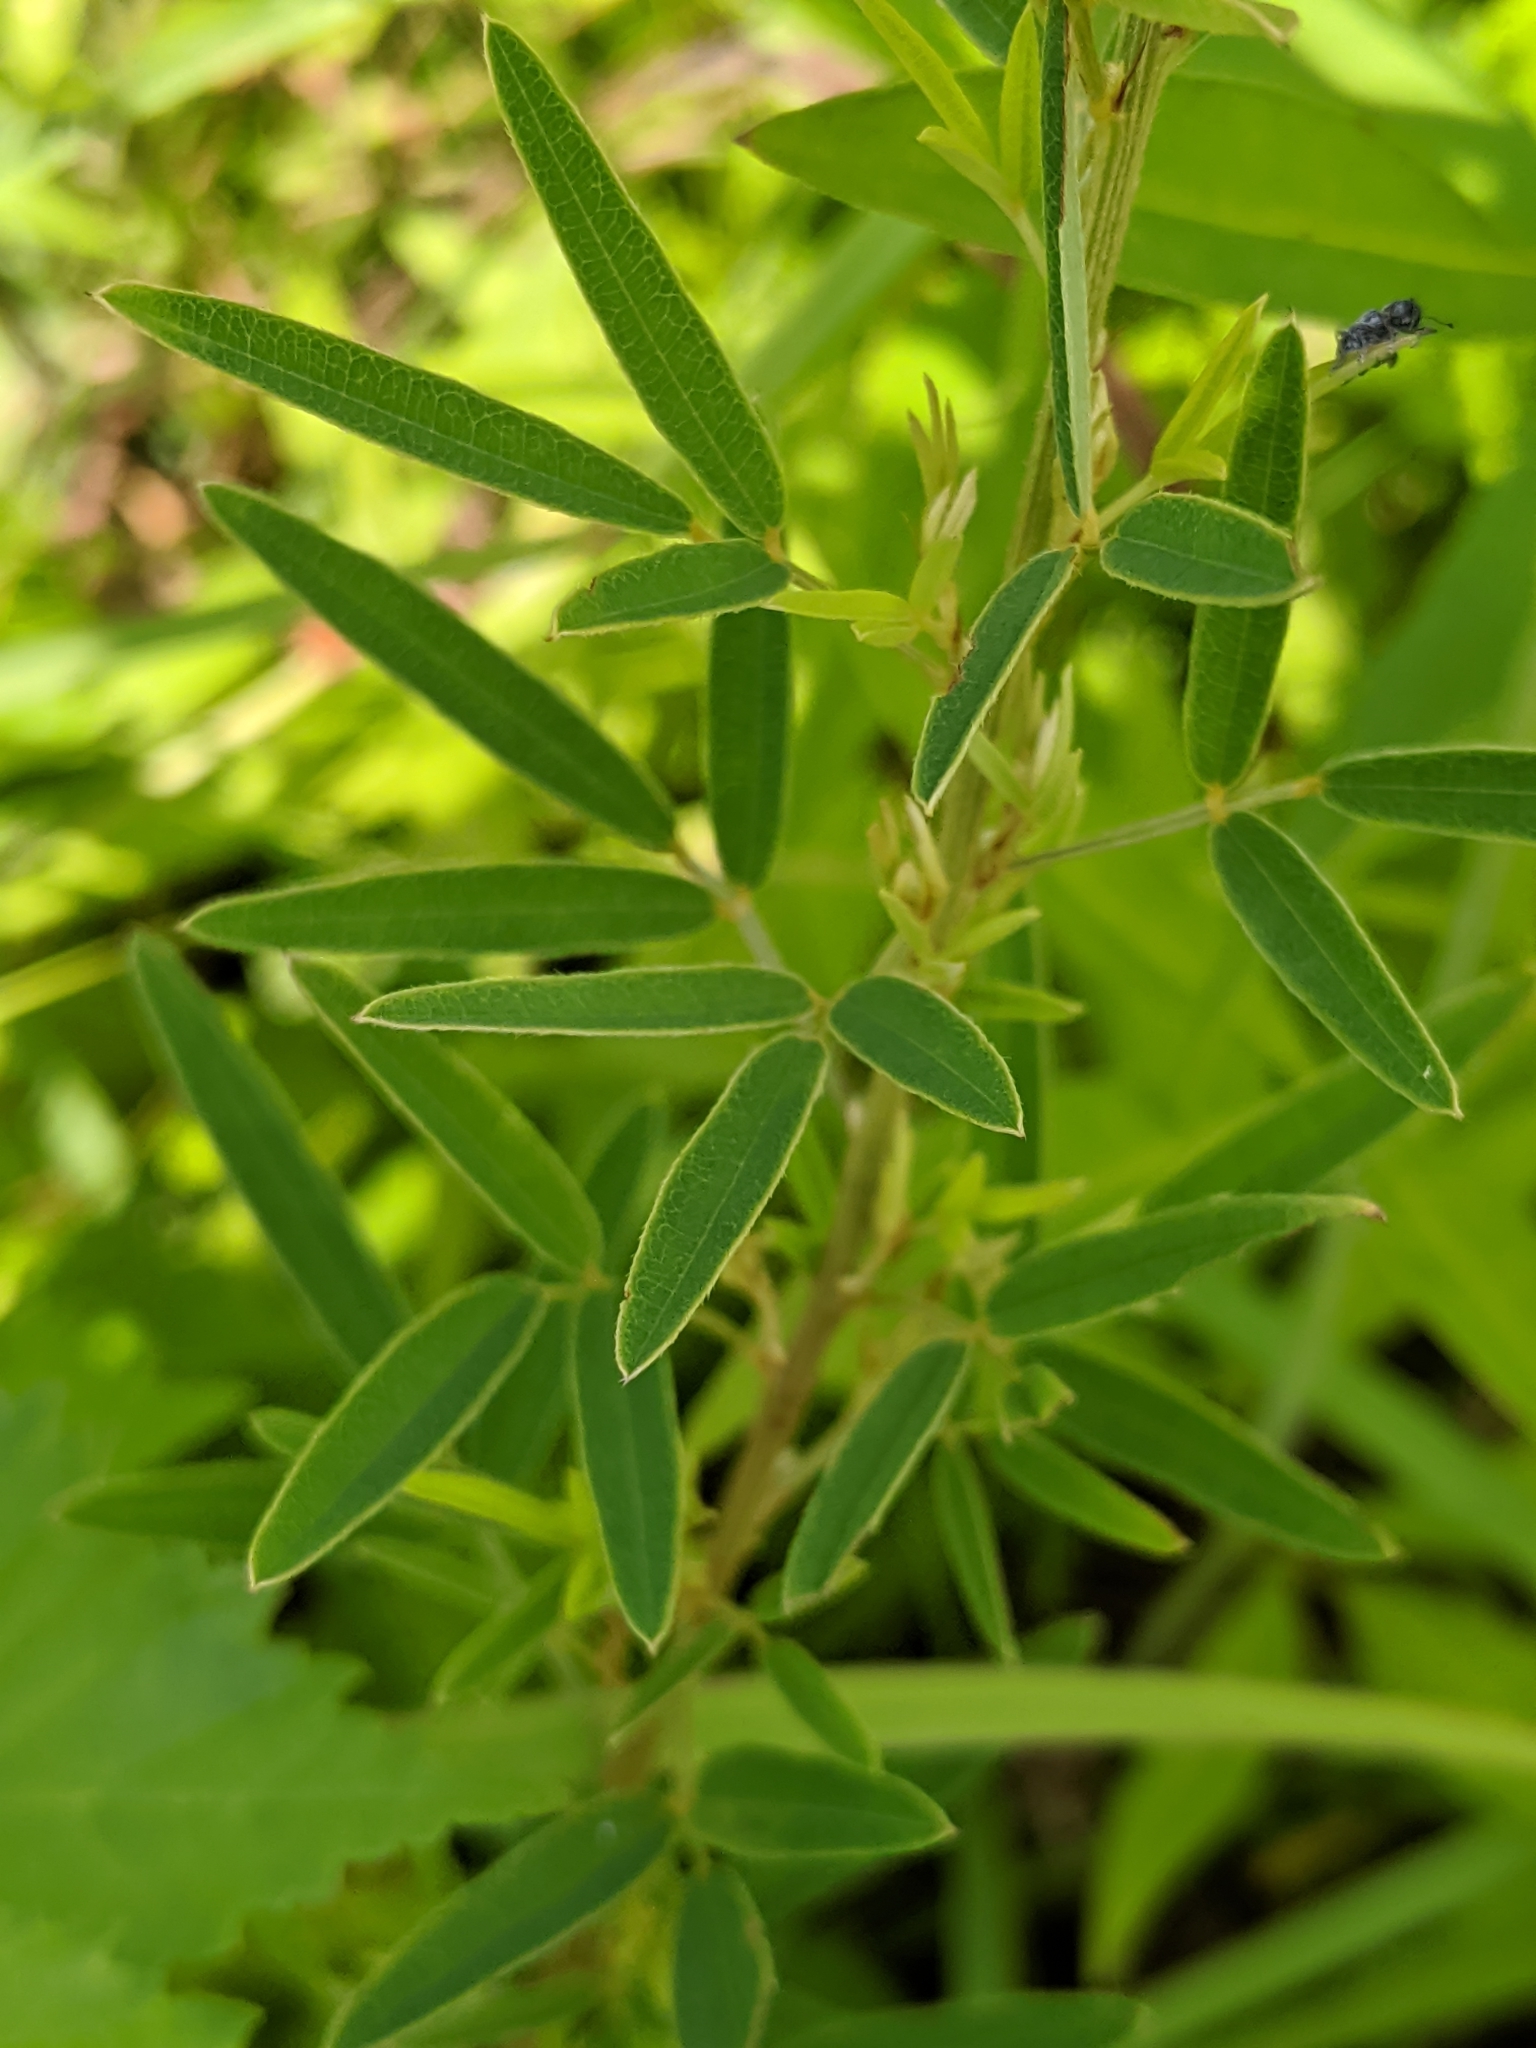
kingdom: Plantae
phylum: Tracheophyta
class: Magnoliopsida
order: Fabales
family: Fabaceae
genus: Lespedeza
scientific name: Lespedeza virginica
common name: Slender bush-clover
